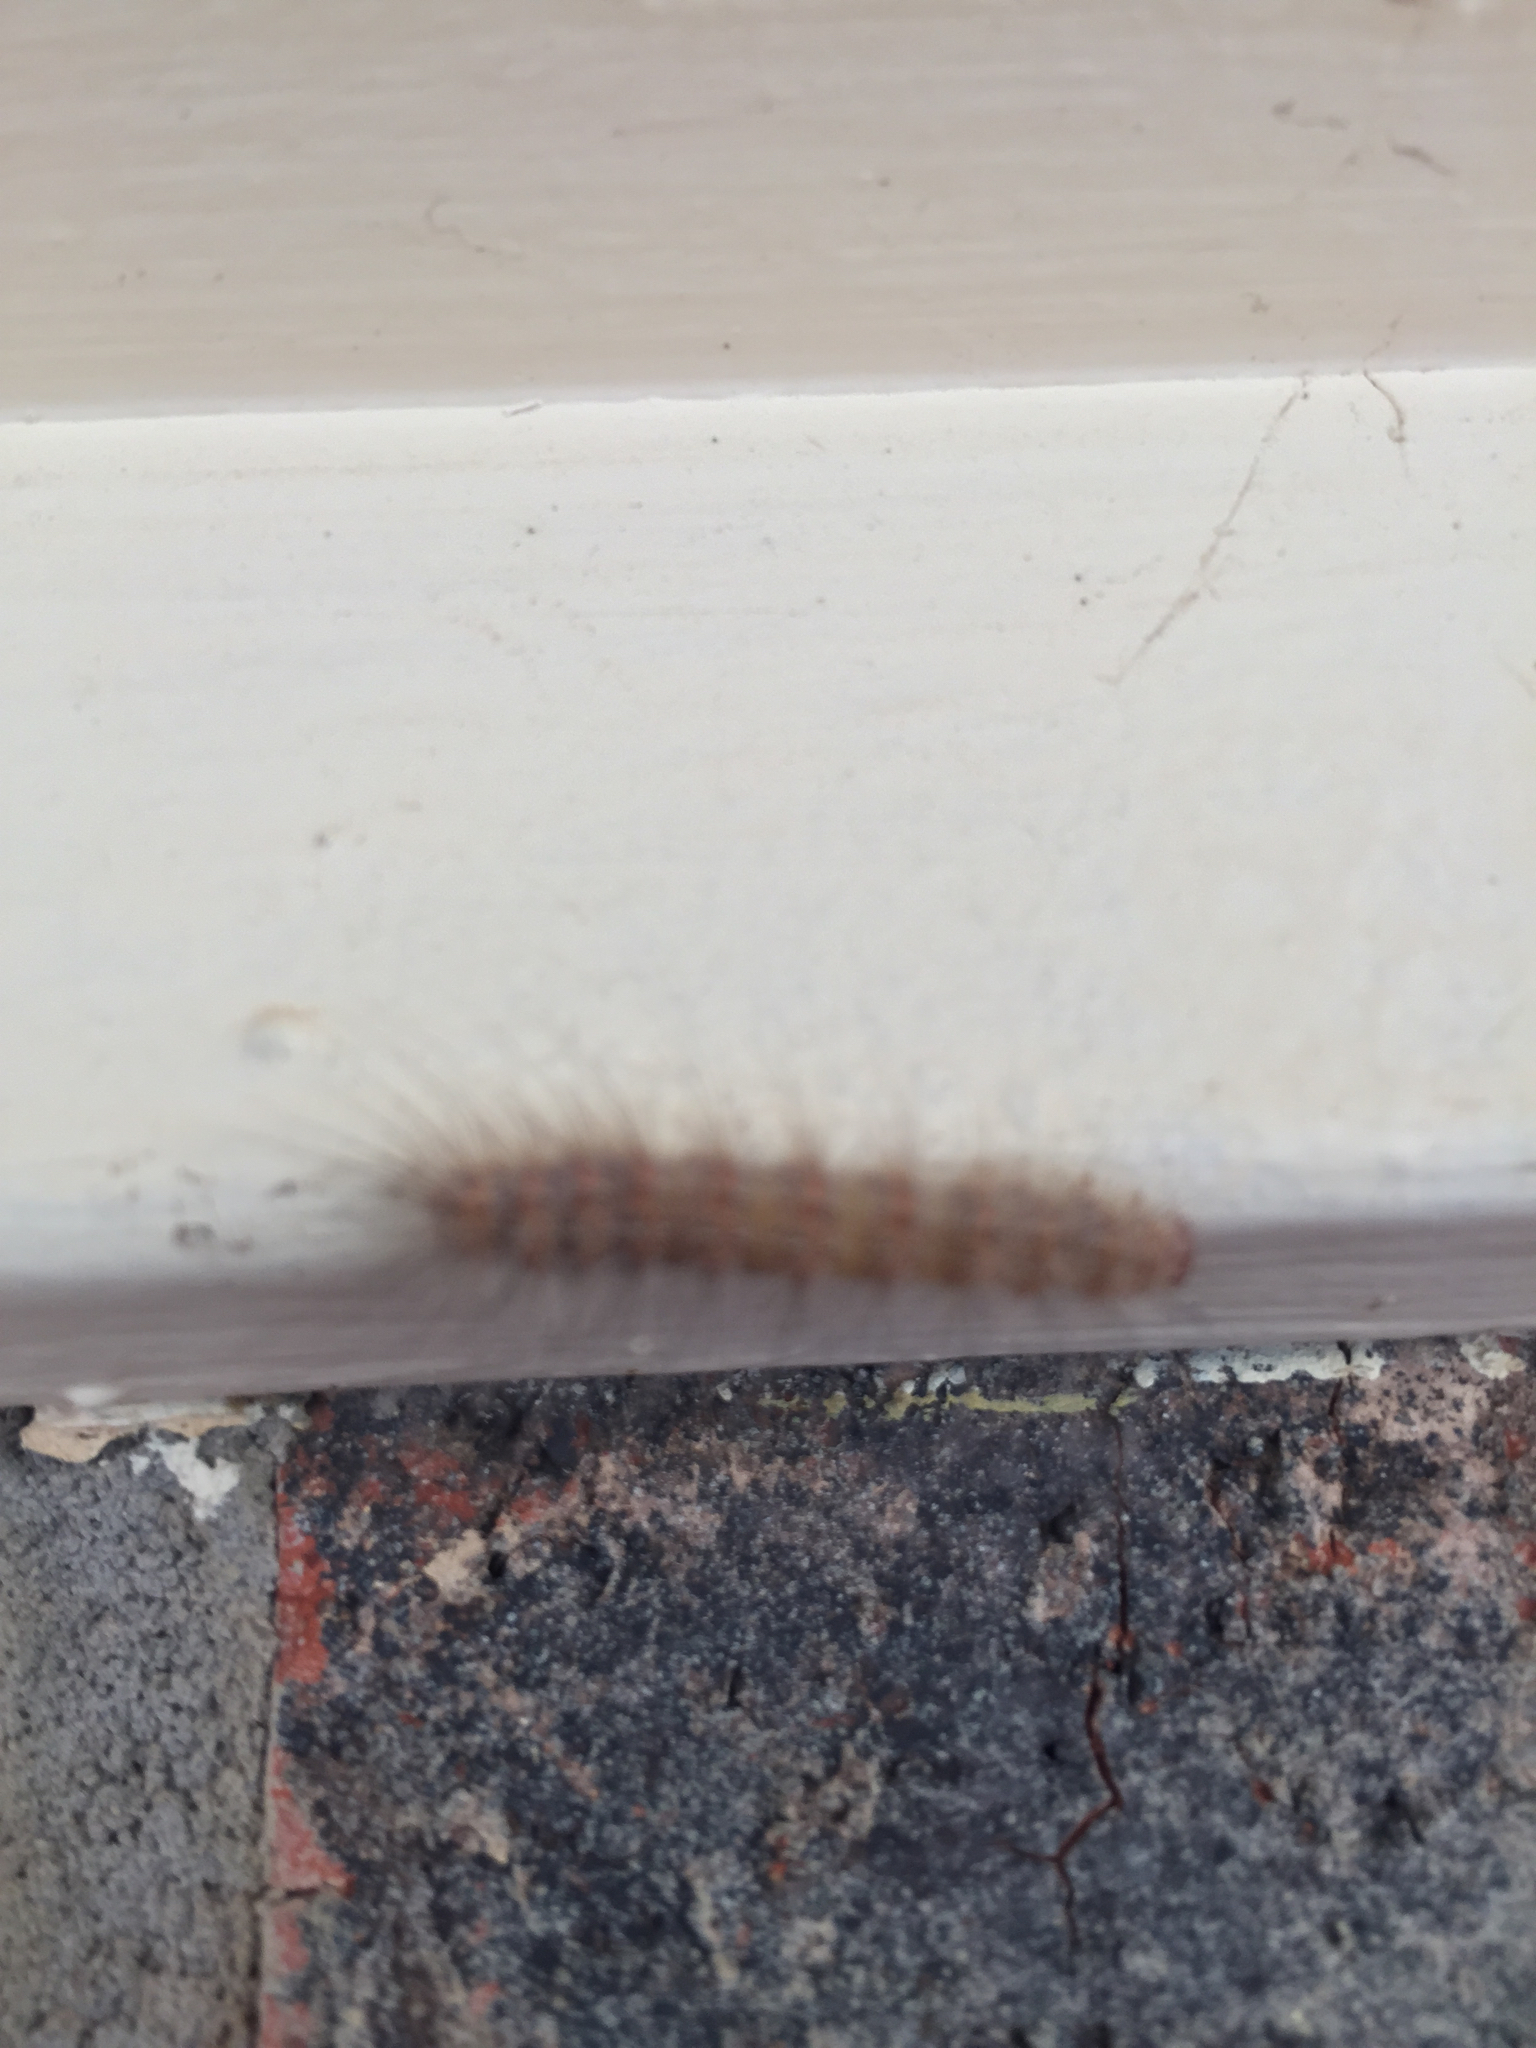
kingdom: Animalia
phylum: Arthropoda
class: Insecta
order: Lepidoptera
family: Erebidae
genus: Hyphantria
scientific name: Hyphantria cunea
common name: American white moth
